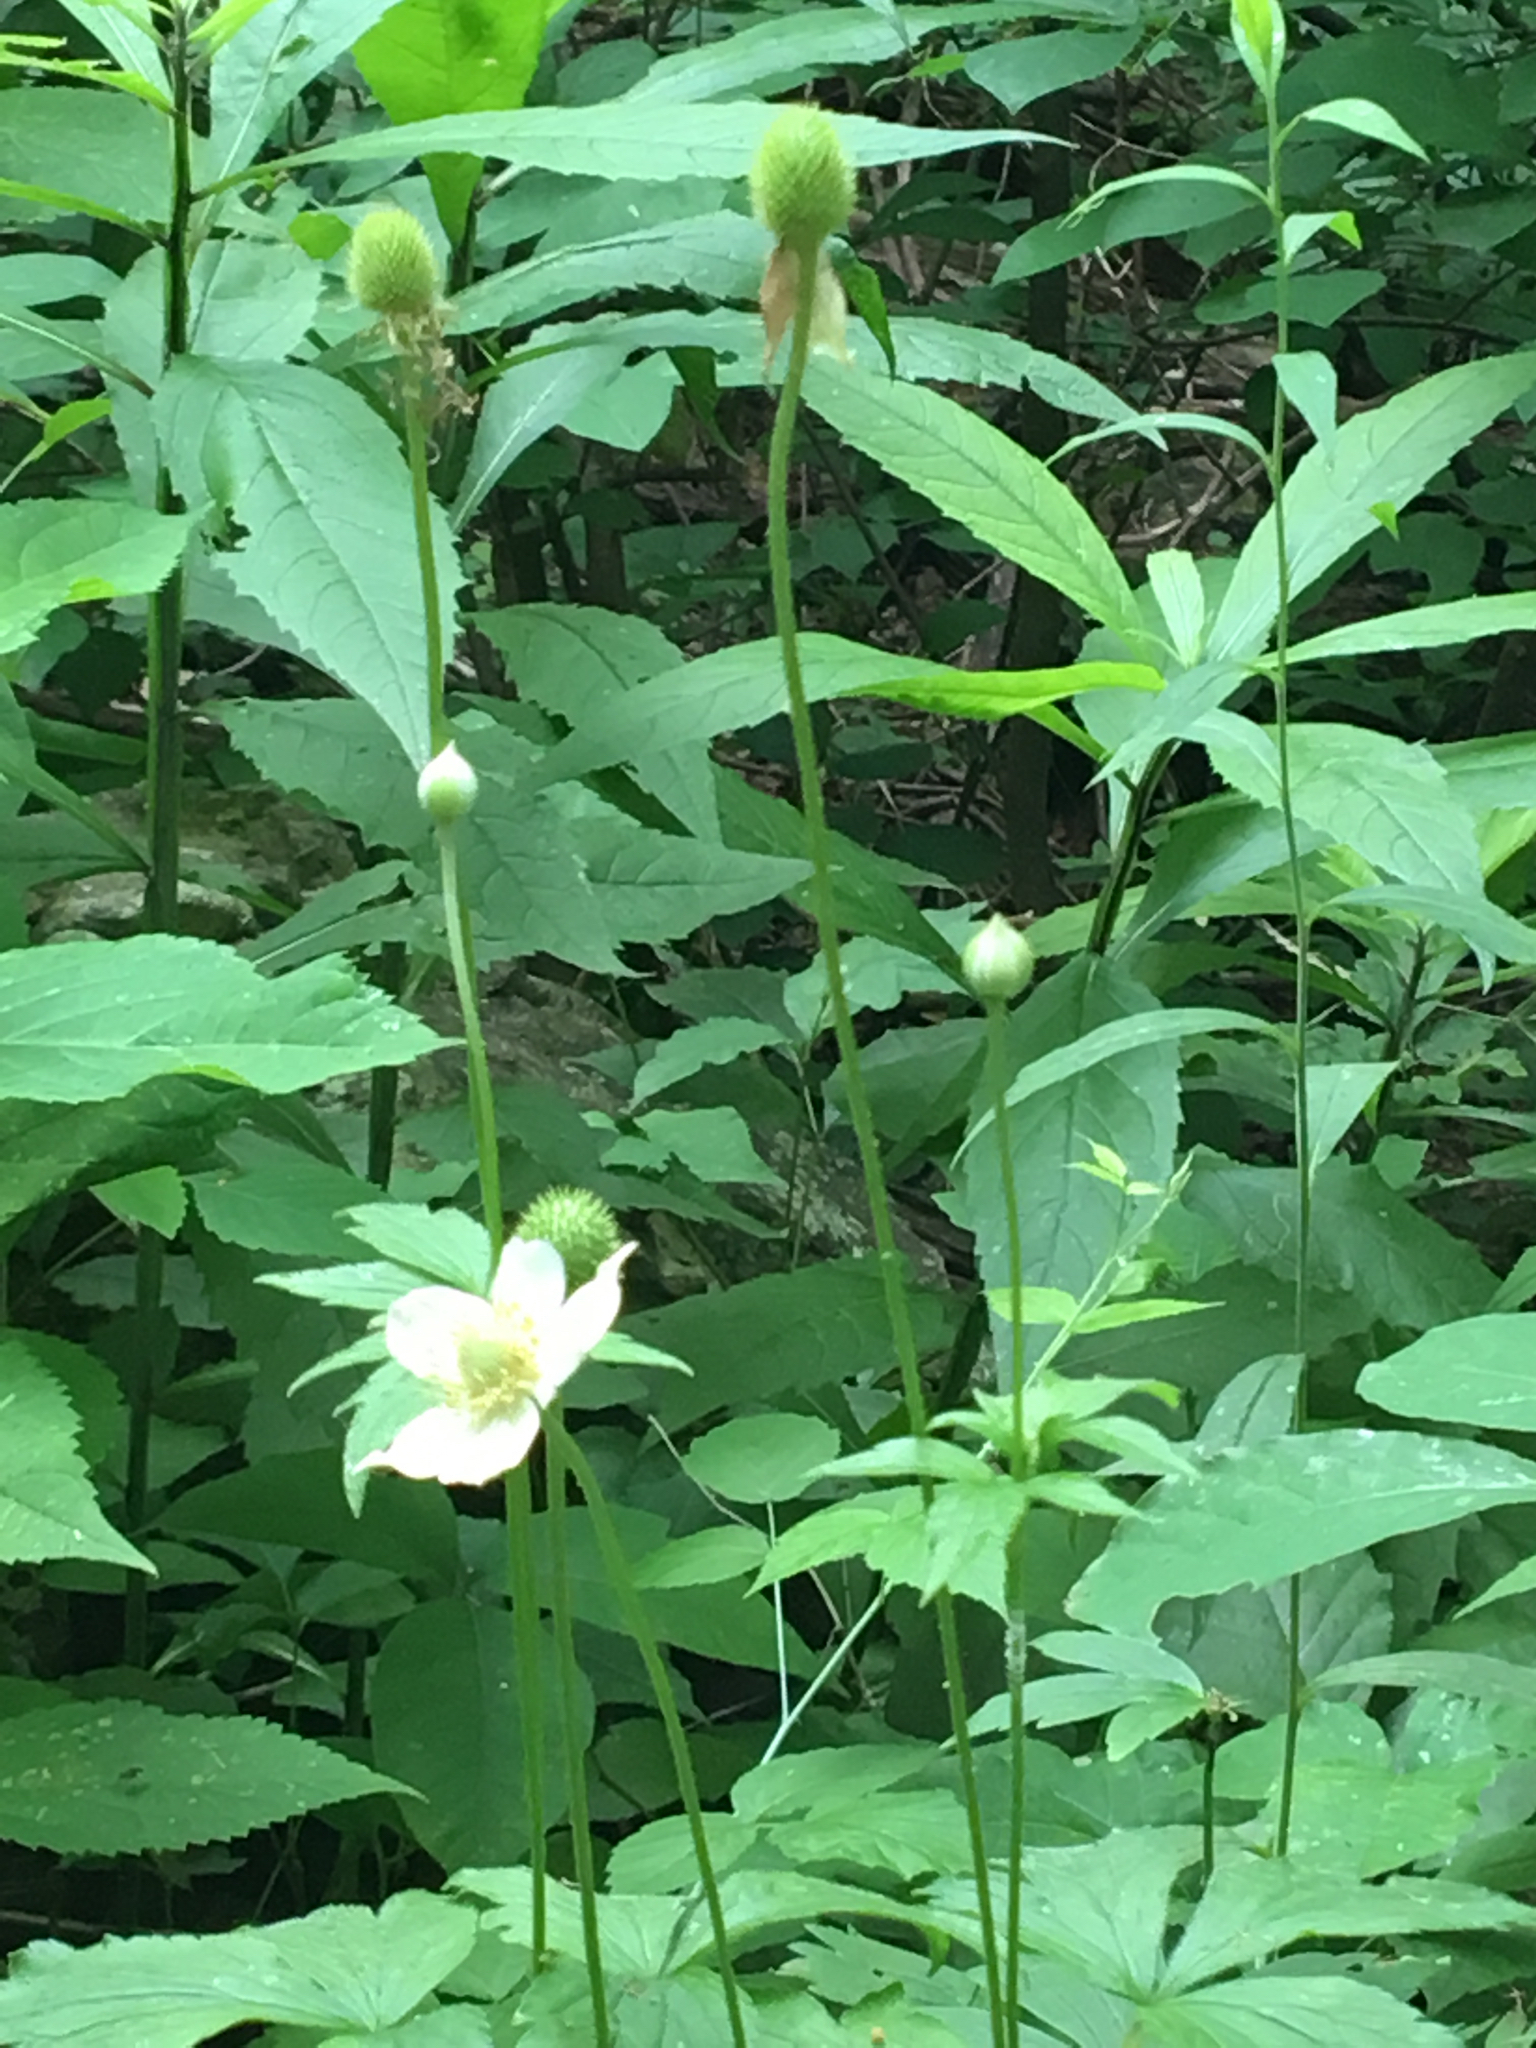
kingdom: Plantae
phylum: Tracheophyta
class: Magnoliopsida
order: Ranunculales
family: Ranunculaceae
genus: Anemone
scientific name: Anemone virginiana
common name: Tall anemone
